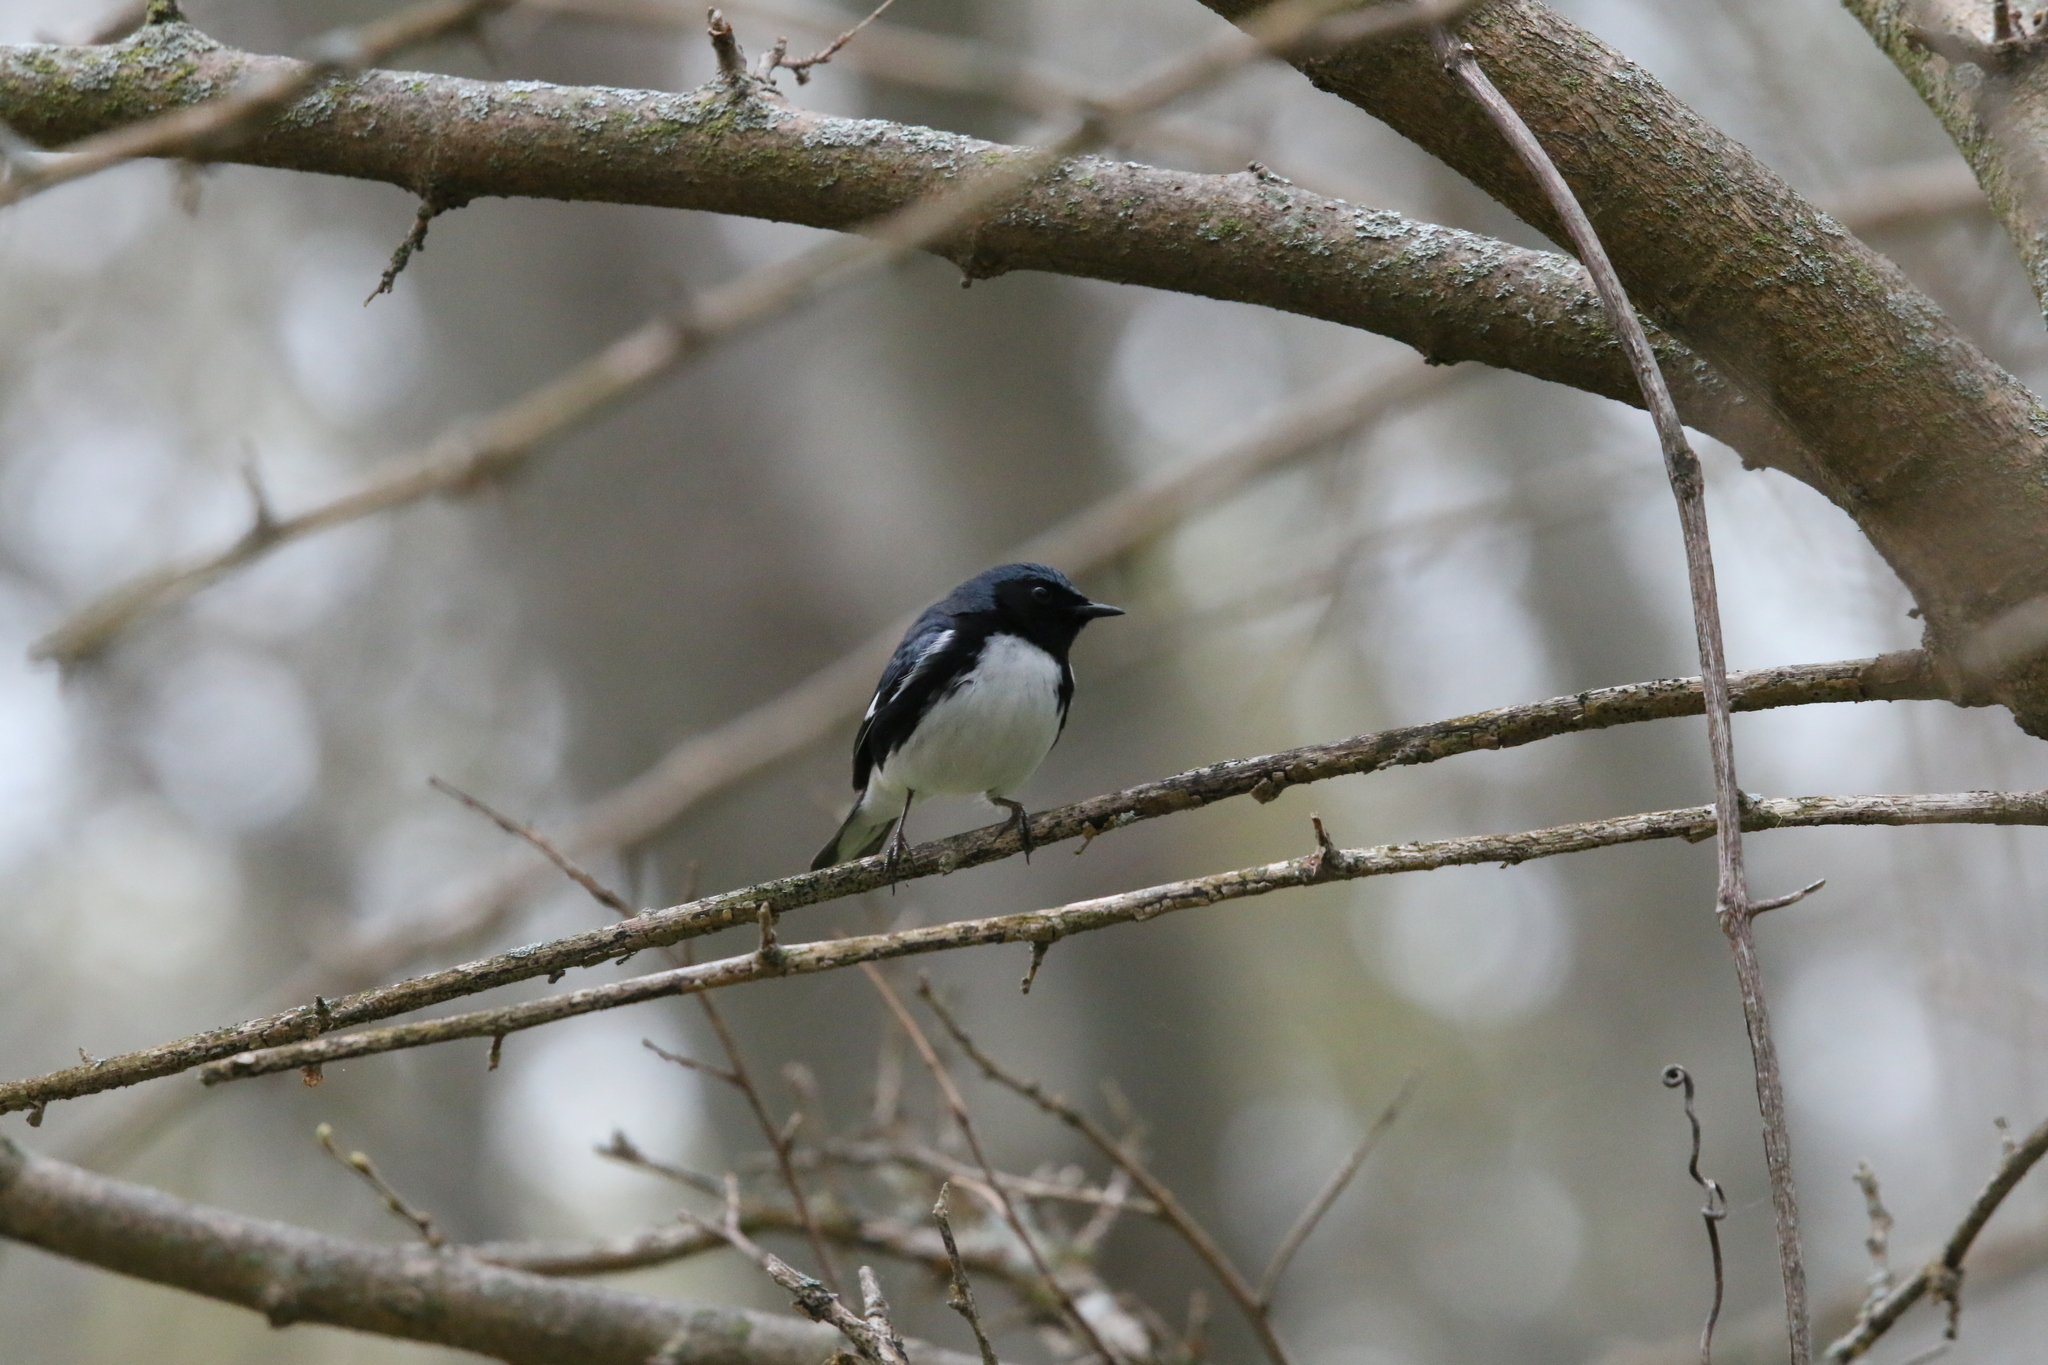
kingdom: Animalia
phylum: Chordata
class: Aves
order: Passeriformes
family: Parulidae
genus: Setophaga
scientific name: Setophaga caerulescens
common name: Black-throated blue warbler
